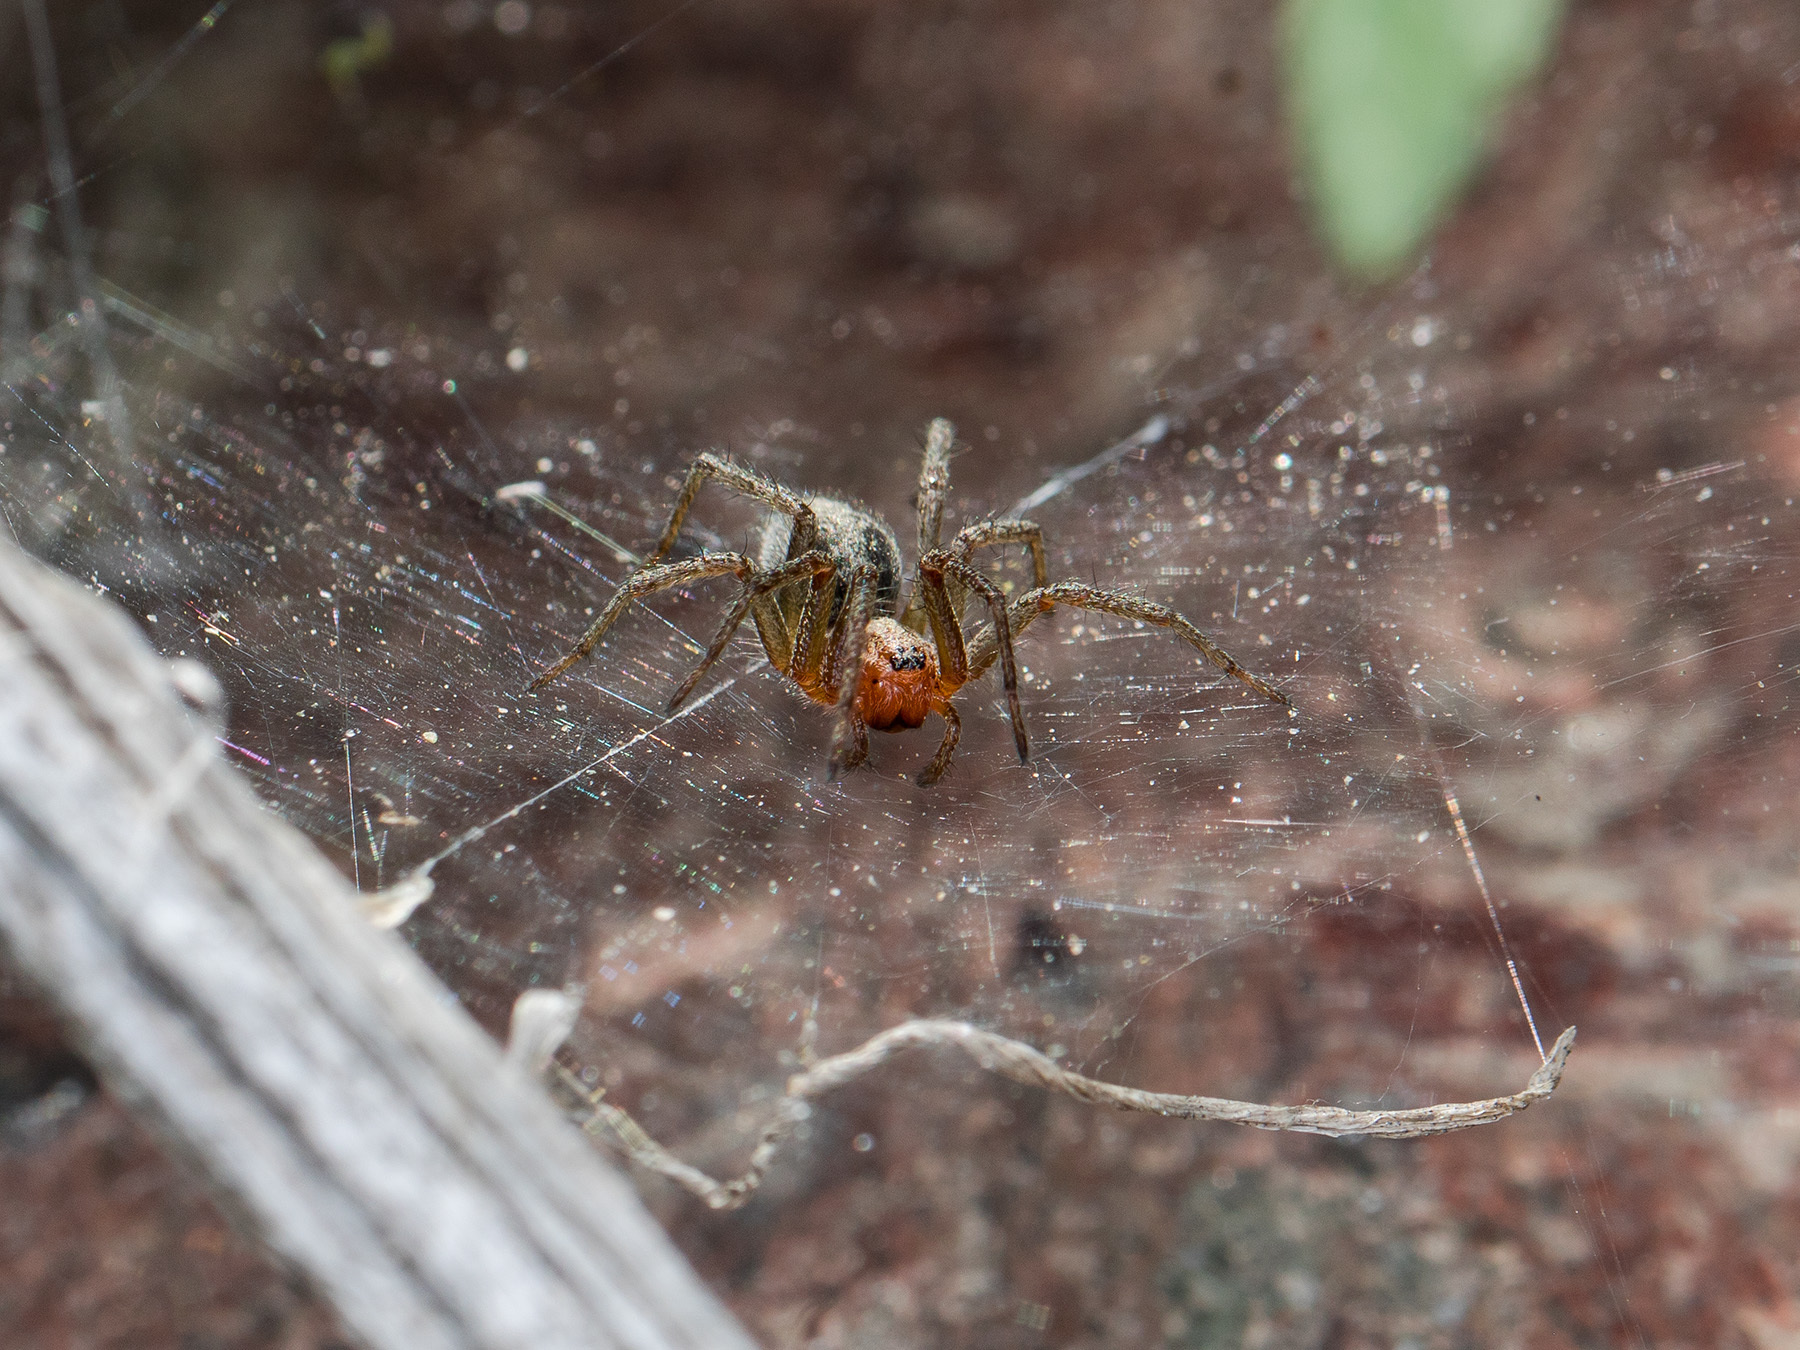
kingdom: Animalia
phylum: Arthropoda
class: Arachnida
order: Araneae
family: Agelenidae
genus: Agelena
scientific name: Agelena labyrinthica
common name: Labyrinth spider
